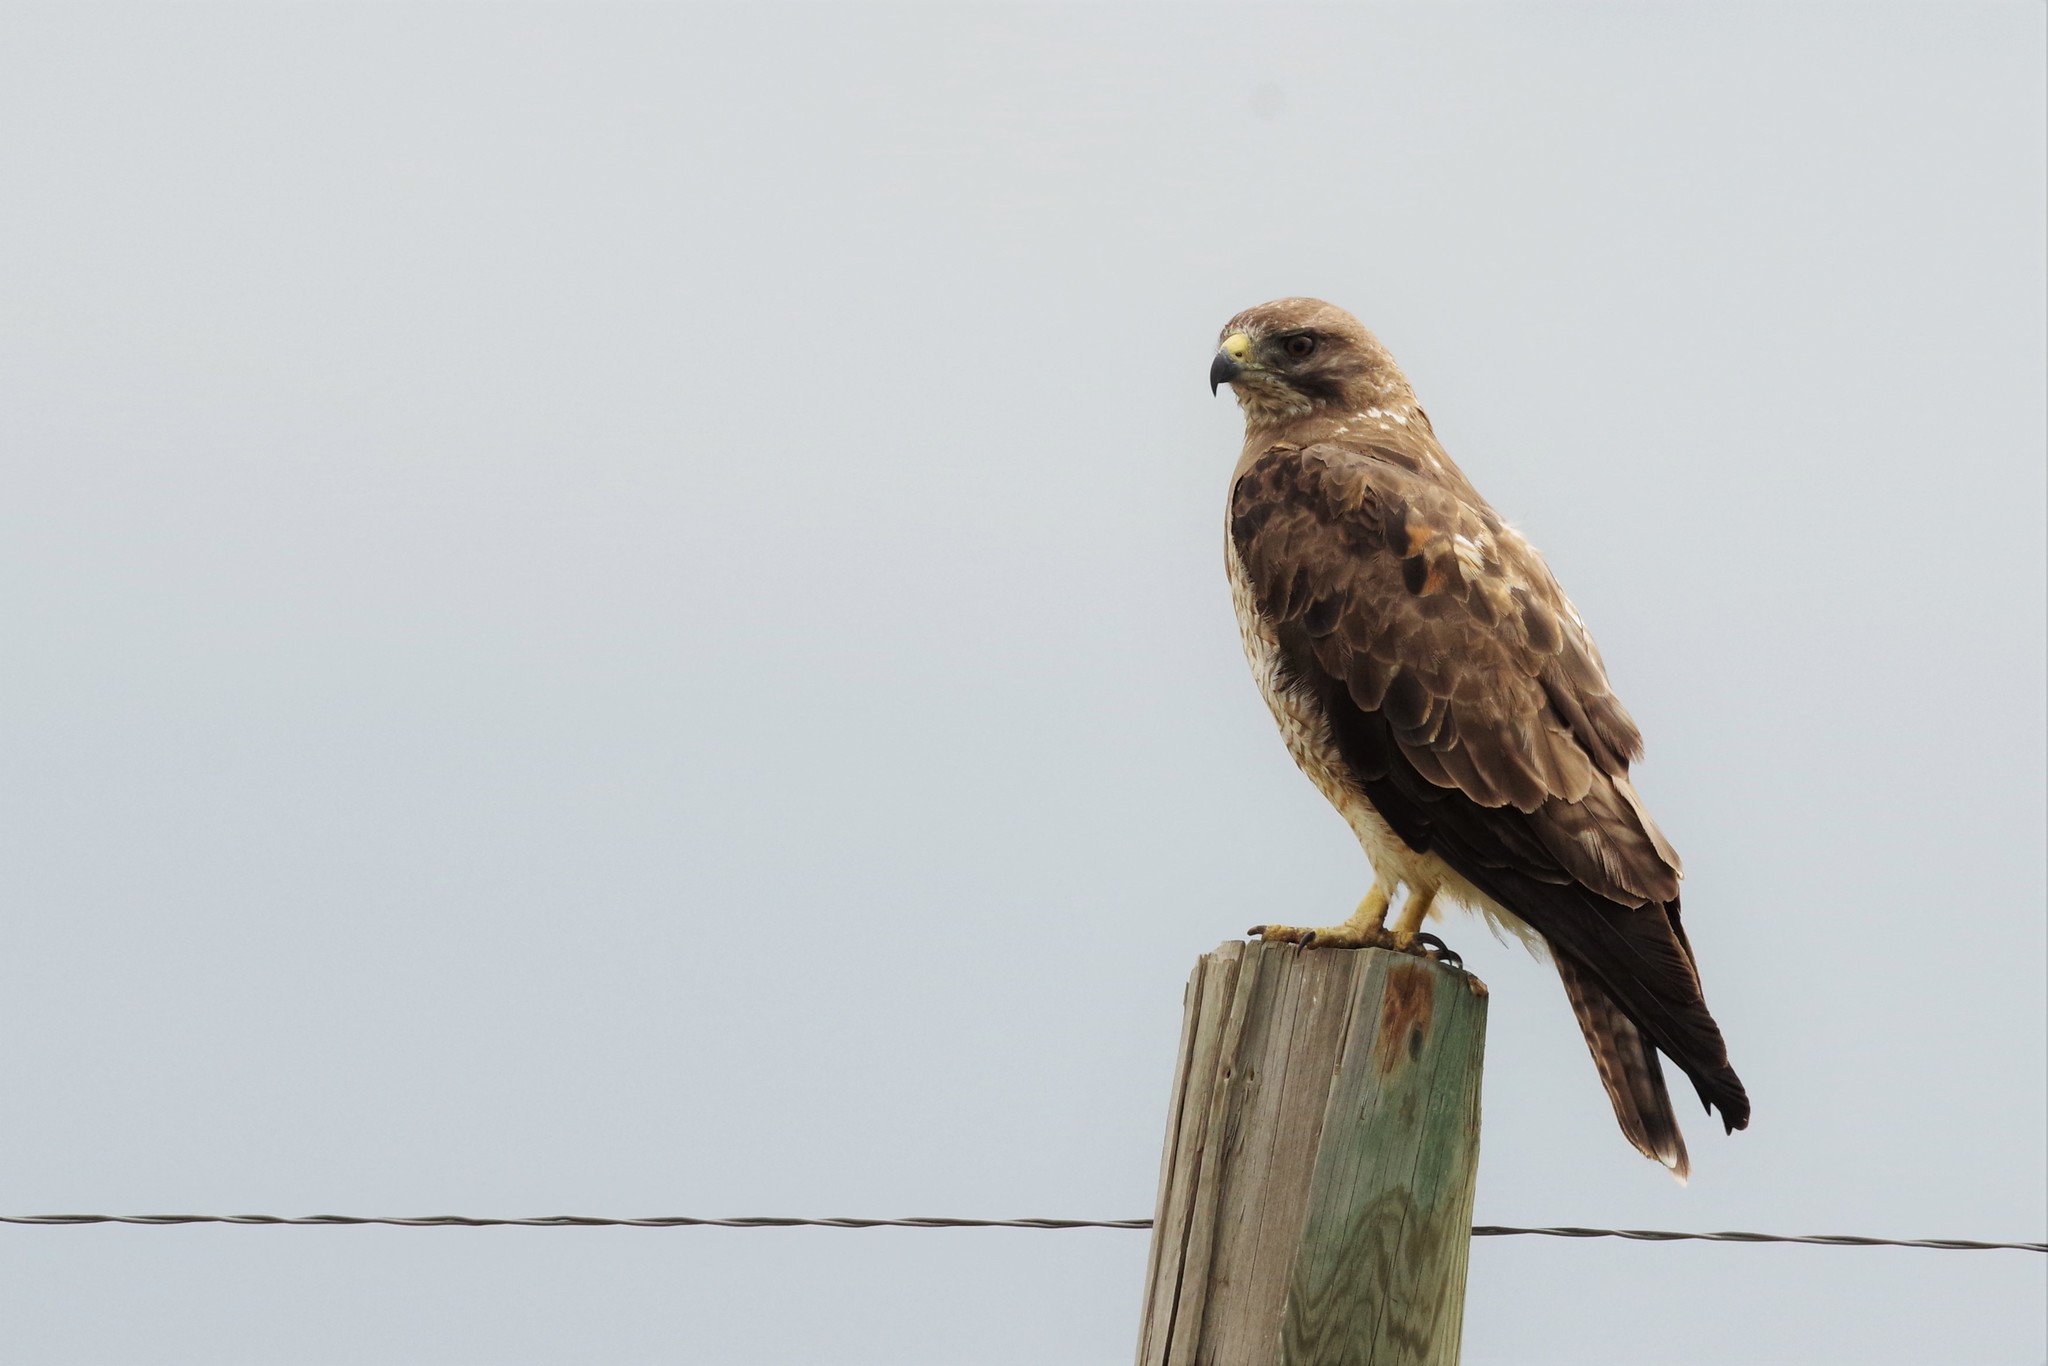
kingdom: Animalia
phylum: Chordata
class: Aves
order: Accipitriformes
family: Accipitridae
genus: Buteo
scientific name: Buteo swainsoni
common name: Swainson's hawk
